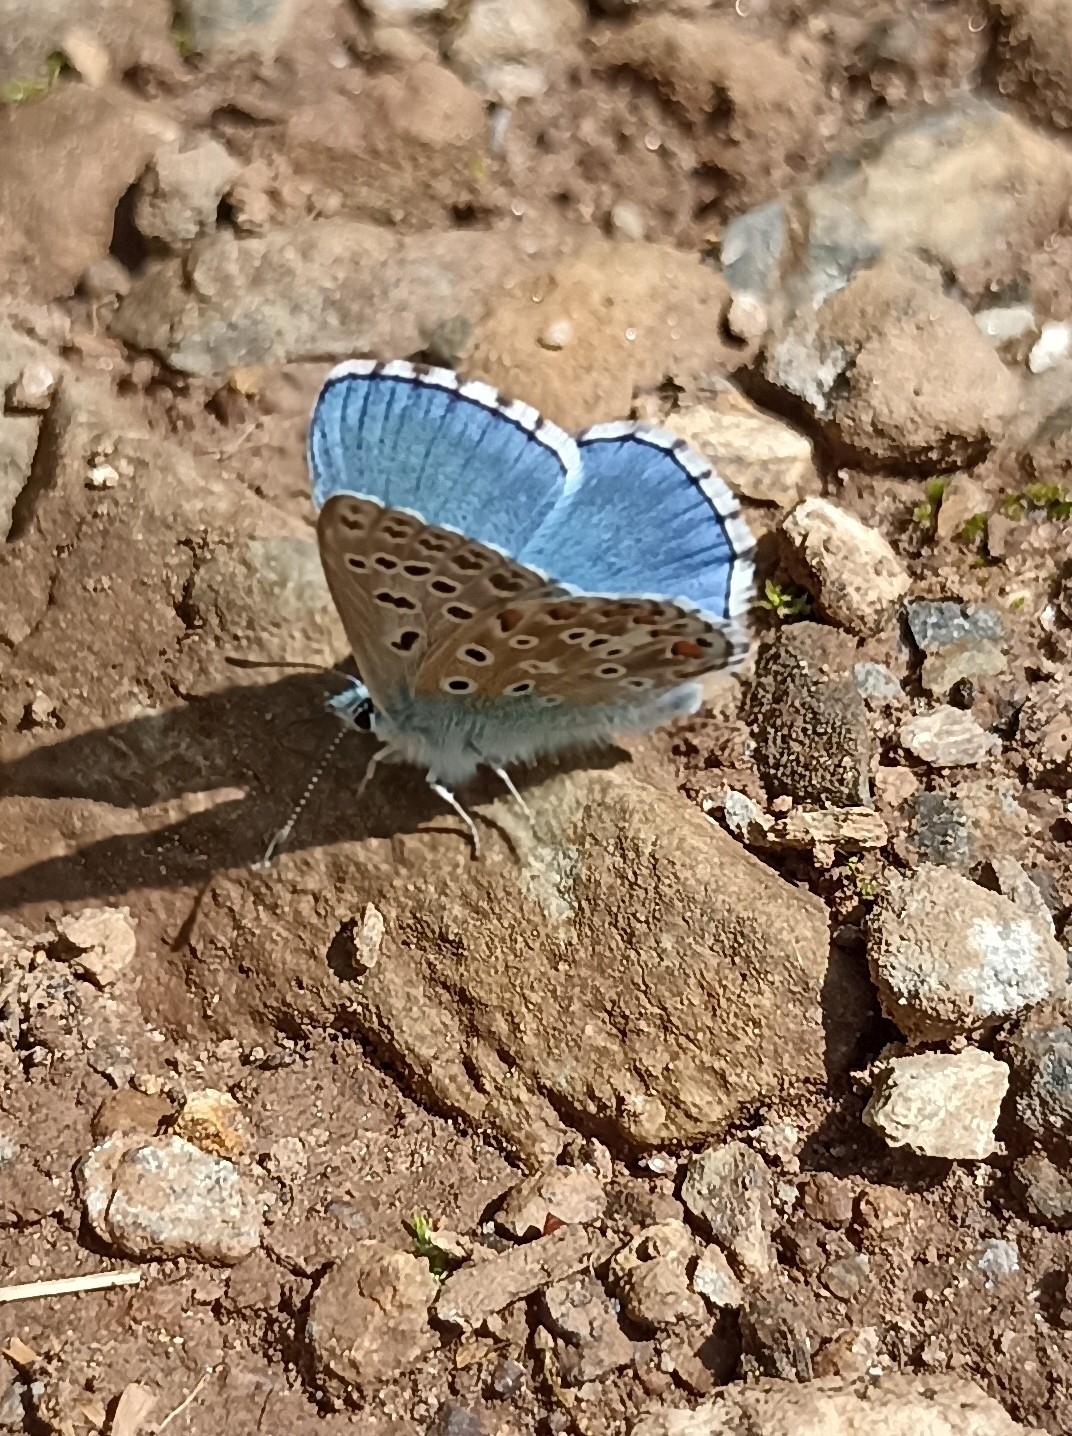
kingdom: Animalia
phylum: Arthropoda
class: Insecta
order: Lepidoptera
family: Lycaenidae
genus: Lysandra
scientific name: Lysandra bellargus
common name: Adonis blue
